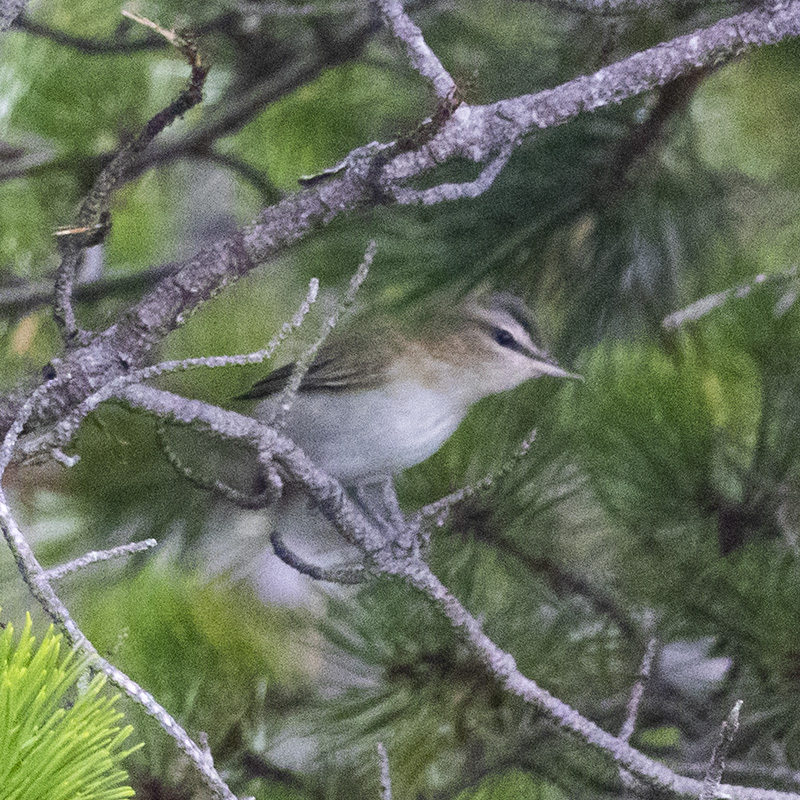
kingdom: Animalia
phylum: Chordata
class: Aves
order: Passeriformes
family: Vireonidae
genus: Vireo
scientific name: Vireo olivaceus
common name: Red-eyed vireo
